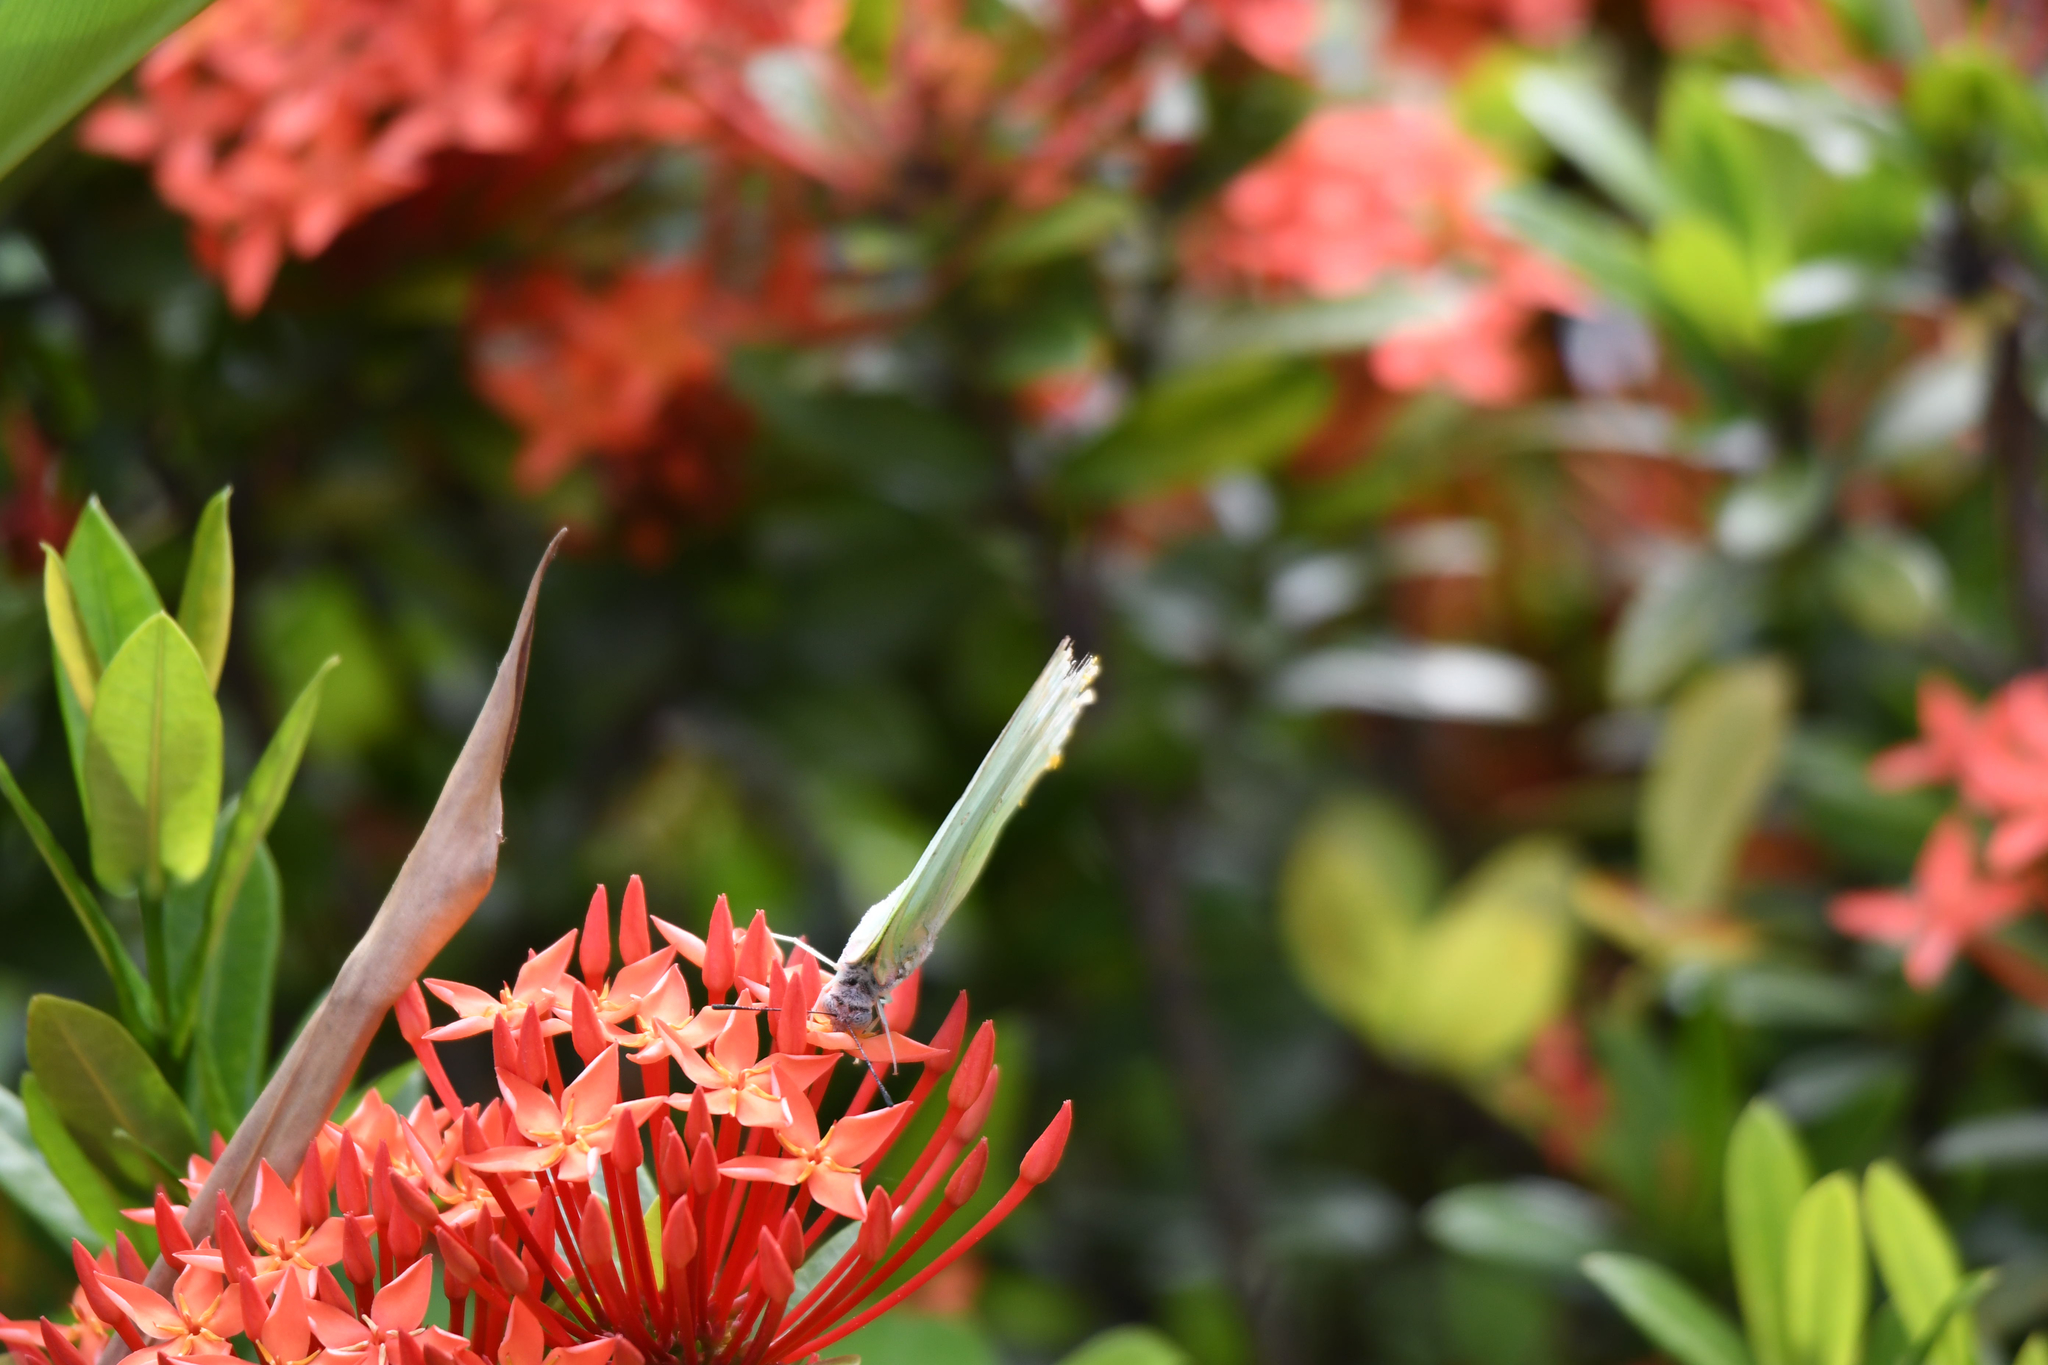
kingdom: Animalia
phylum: Arthropoda
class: Insecta
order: Lepidoptera
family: Pieridae
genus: Catopsilia
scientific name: Catopsilia pomona
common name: Common emigrant
